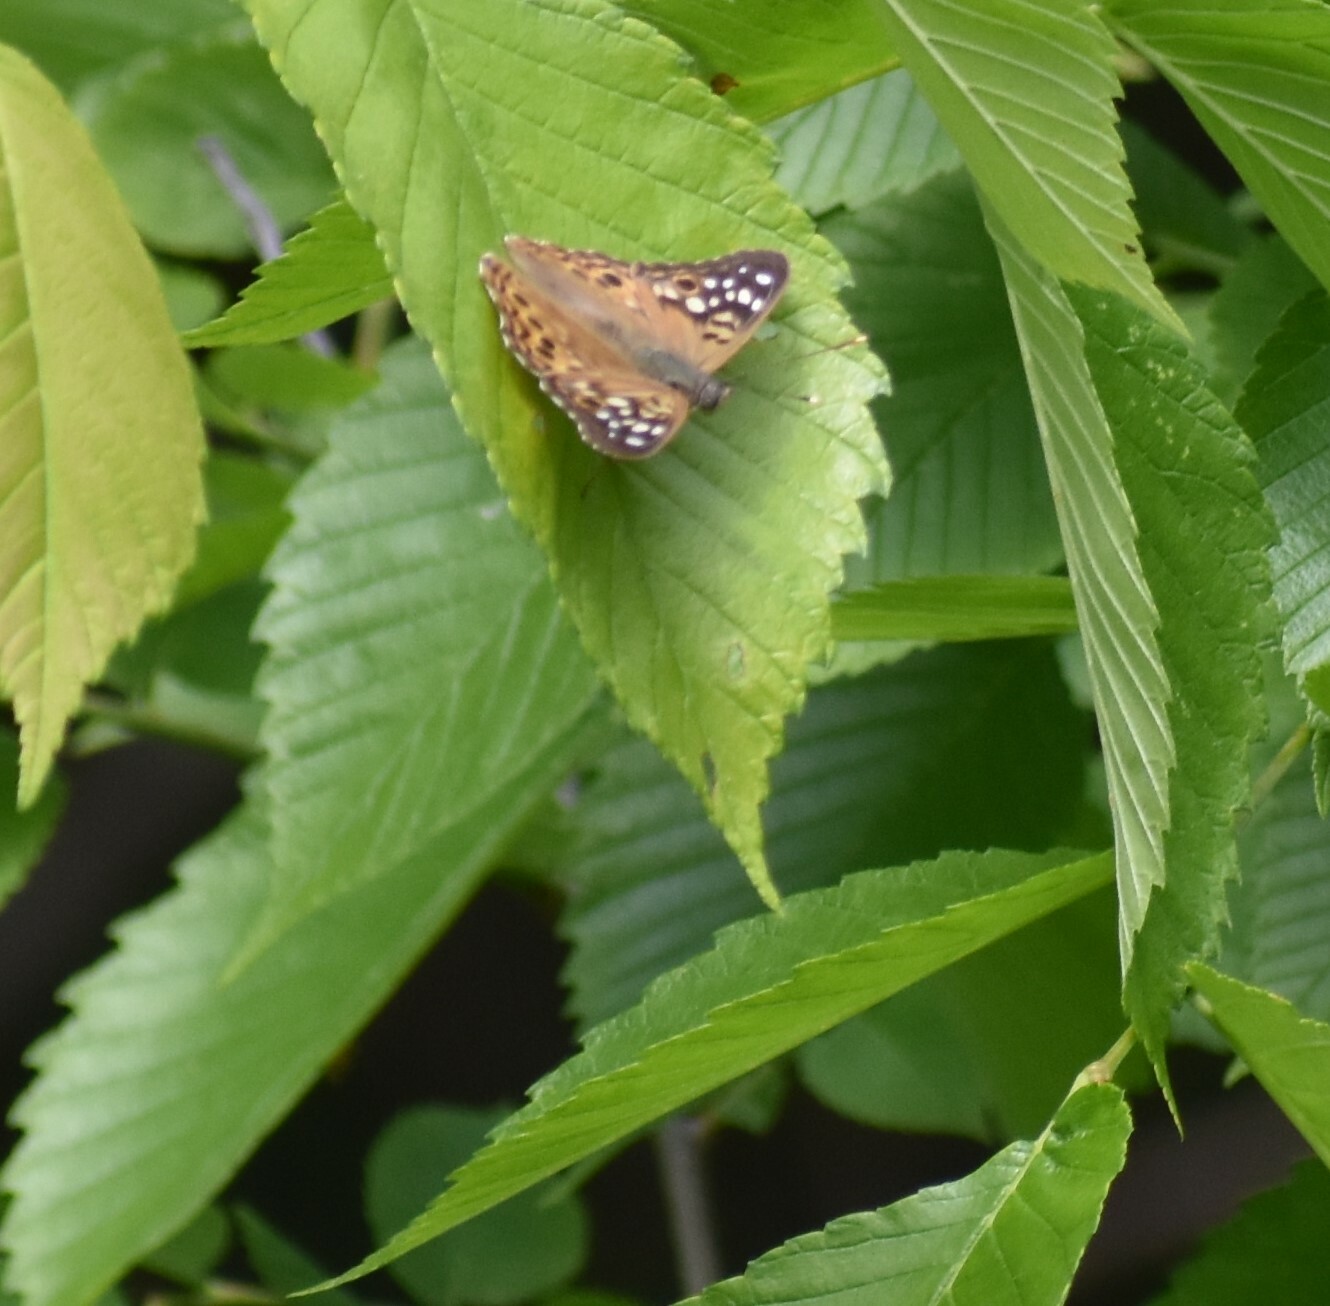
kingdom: Animalia
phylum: Arthropoda
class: Insecta
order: Lepidoptera
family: Nymphalidae
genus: Asterocampa
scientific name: Asterocampa celtis
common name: Hackberry emperor
